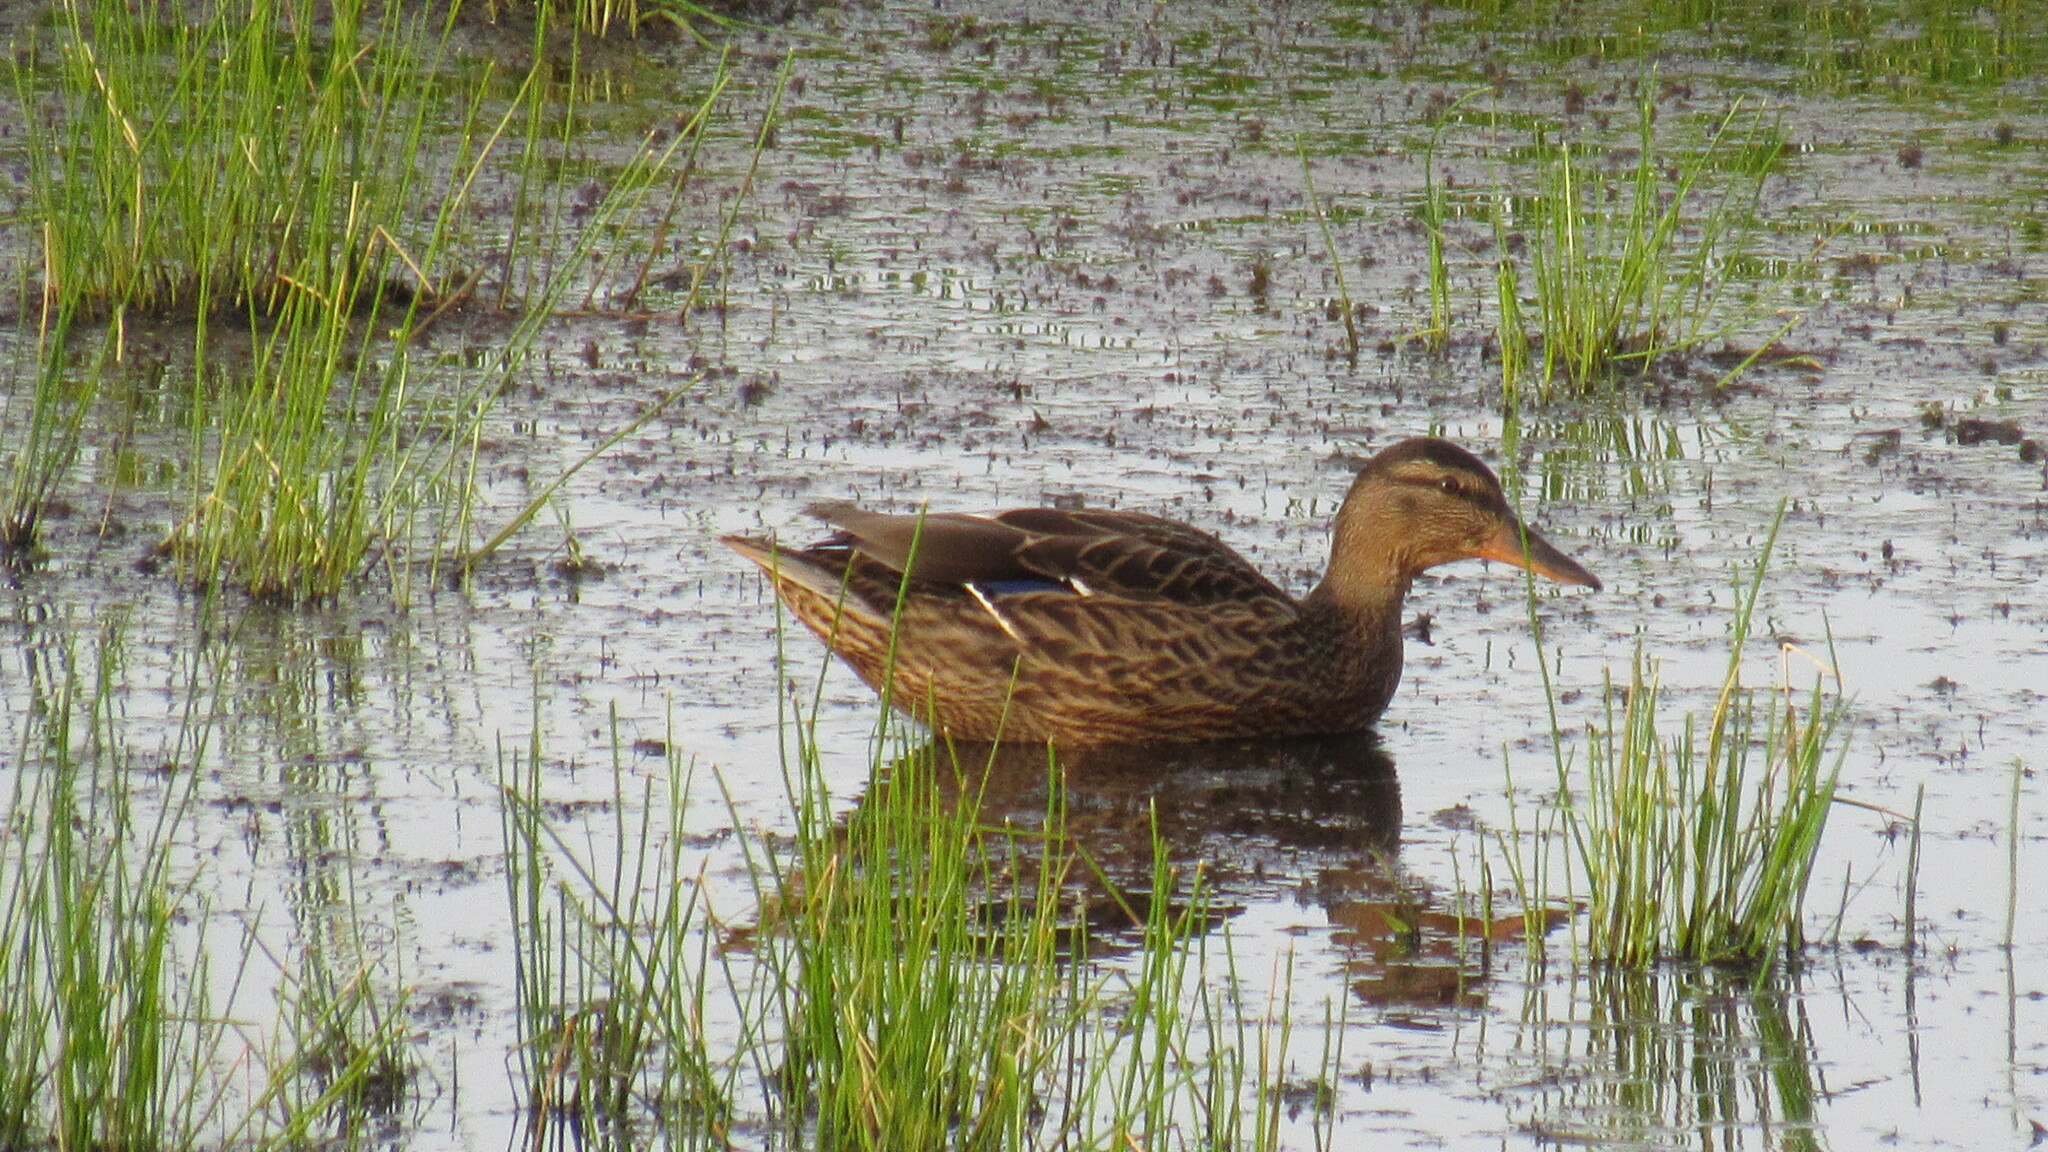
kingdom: Animalia
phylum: Chordata
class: Aves
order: Anseriformes
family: Anatidae
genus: Anas
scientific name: Anas platyrhynchos
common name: Mallard
